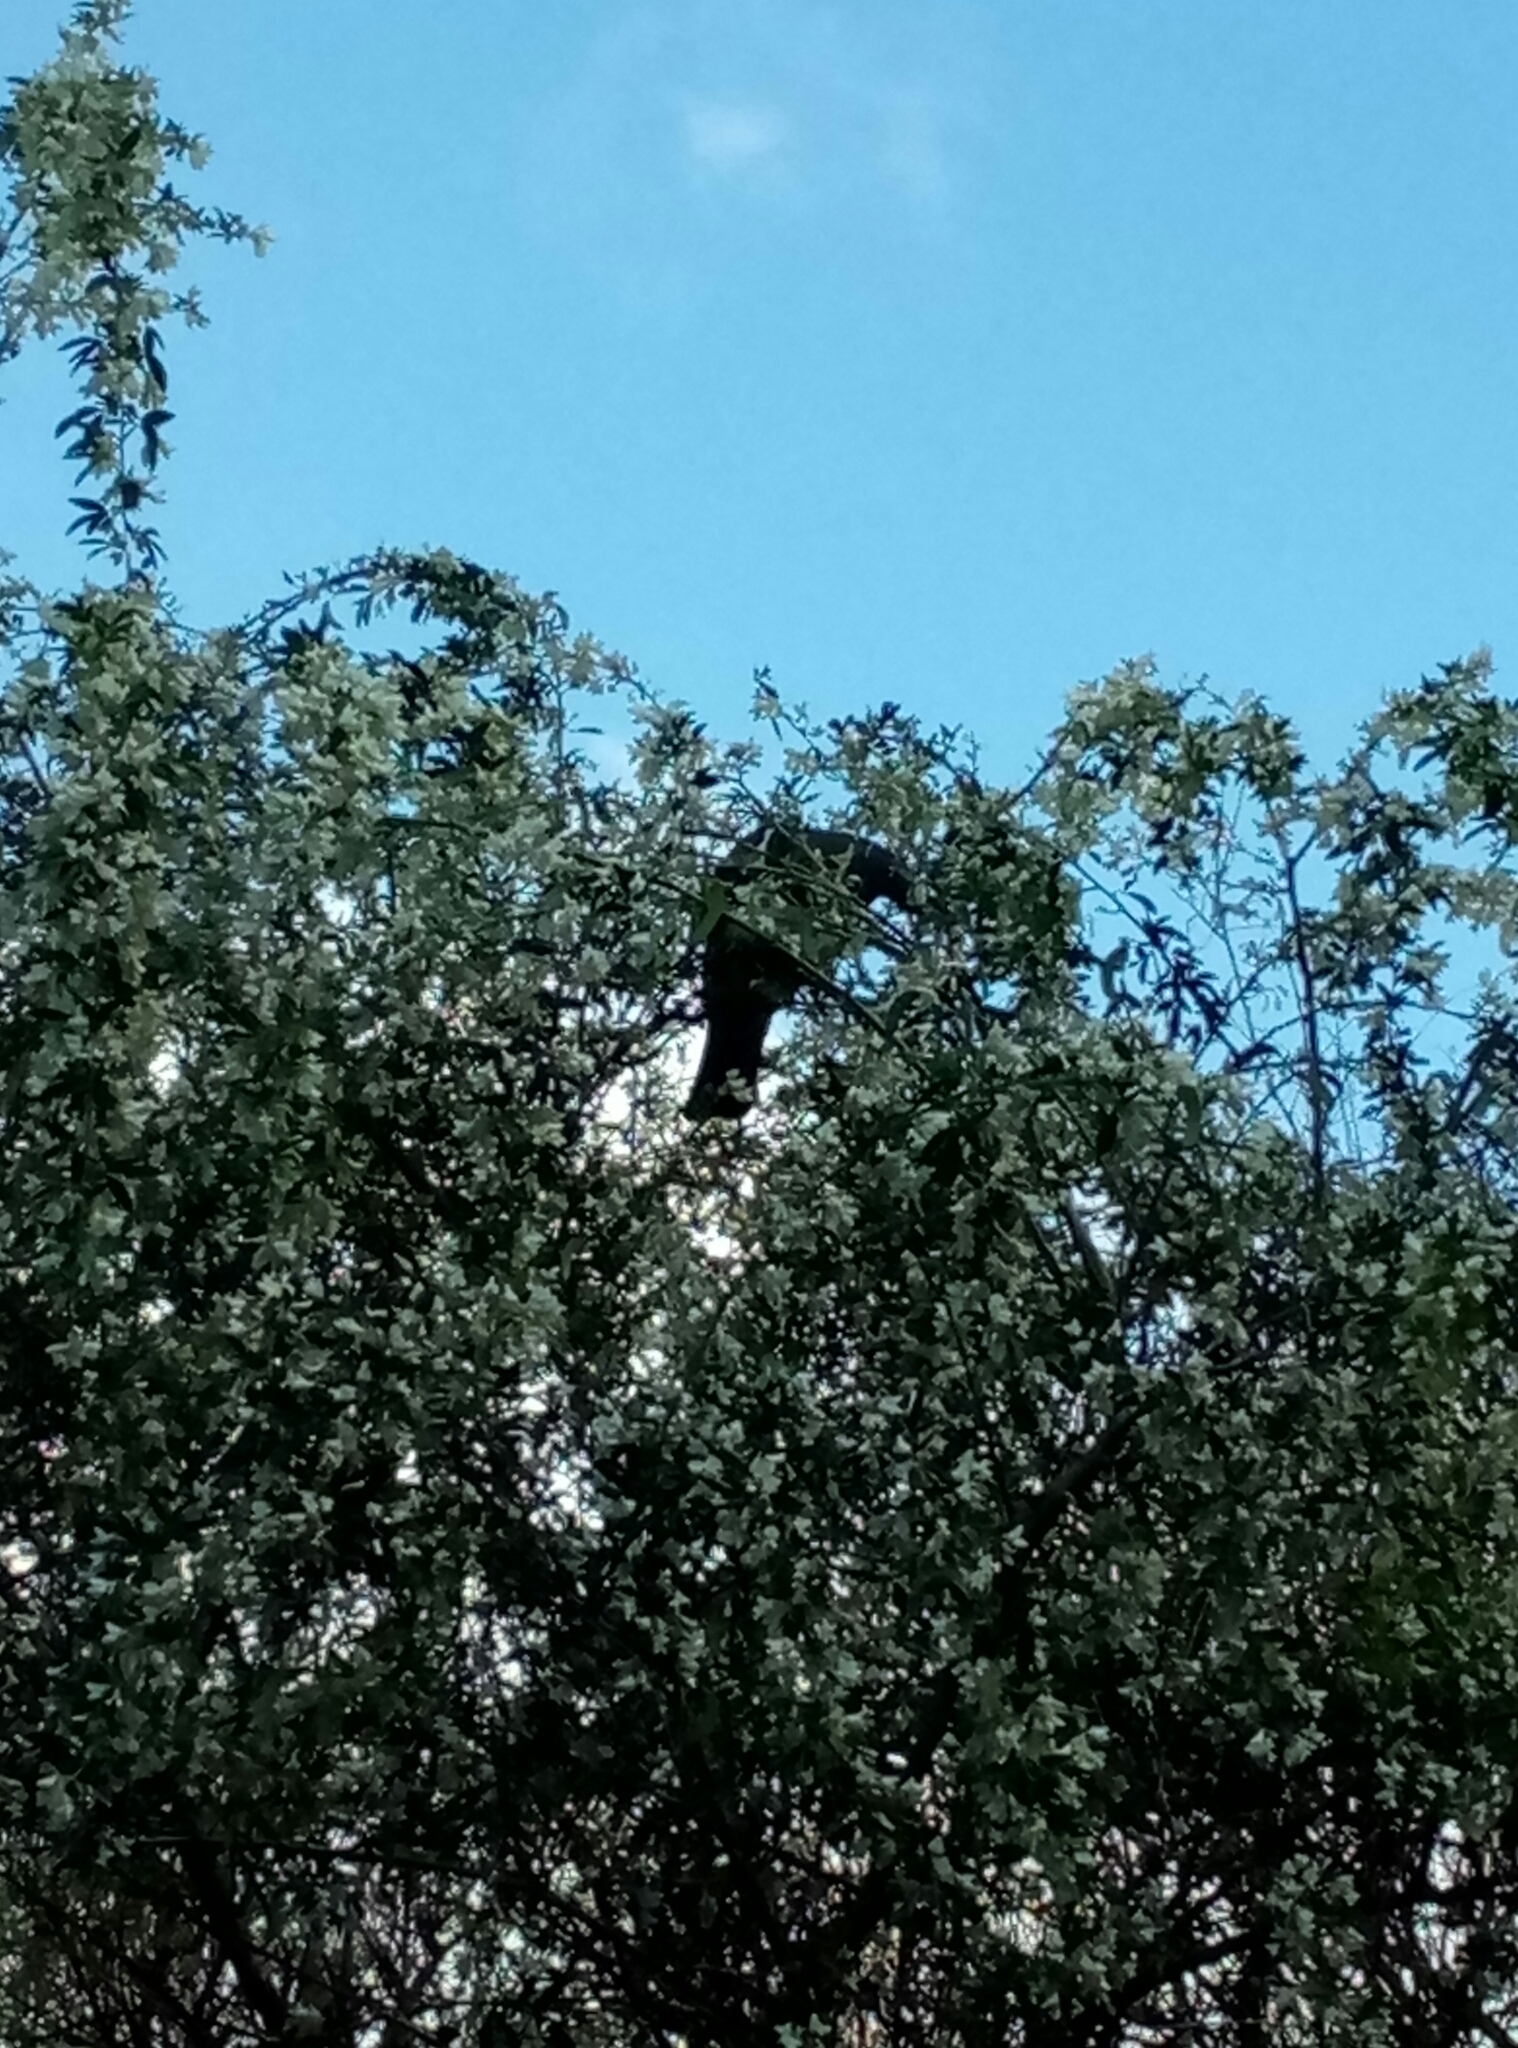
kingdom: Animalia
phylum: Chordata
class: Aves
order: Columbiformes
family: Columbidae
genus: Hemiphaga
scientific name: Hemiphaga novaeseelandiae
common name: New zealand pigeon
